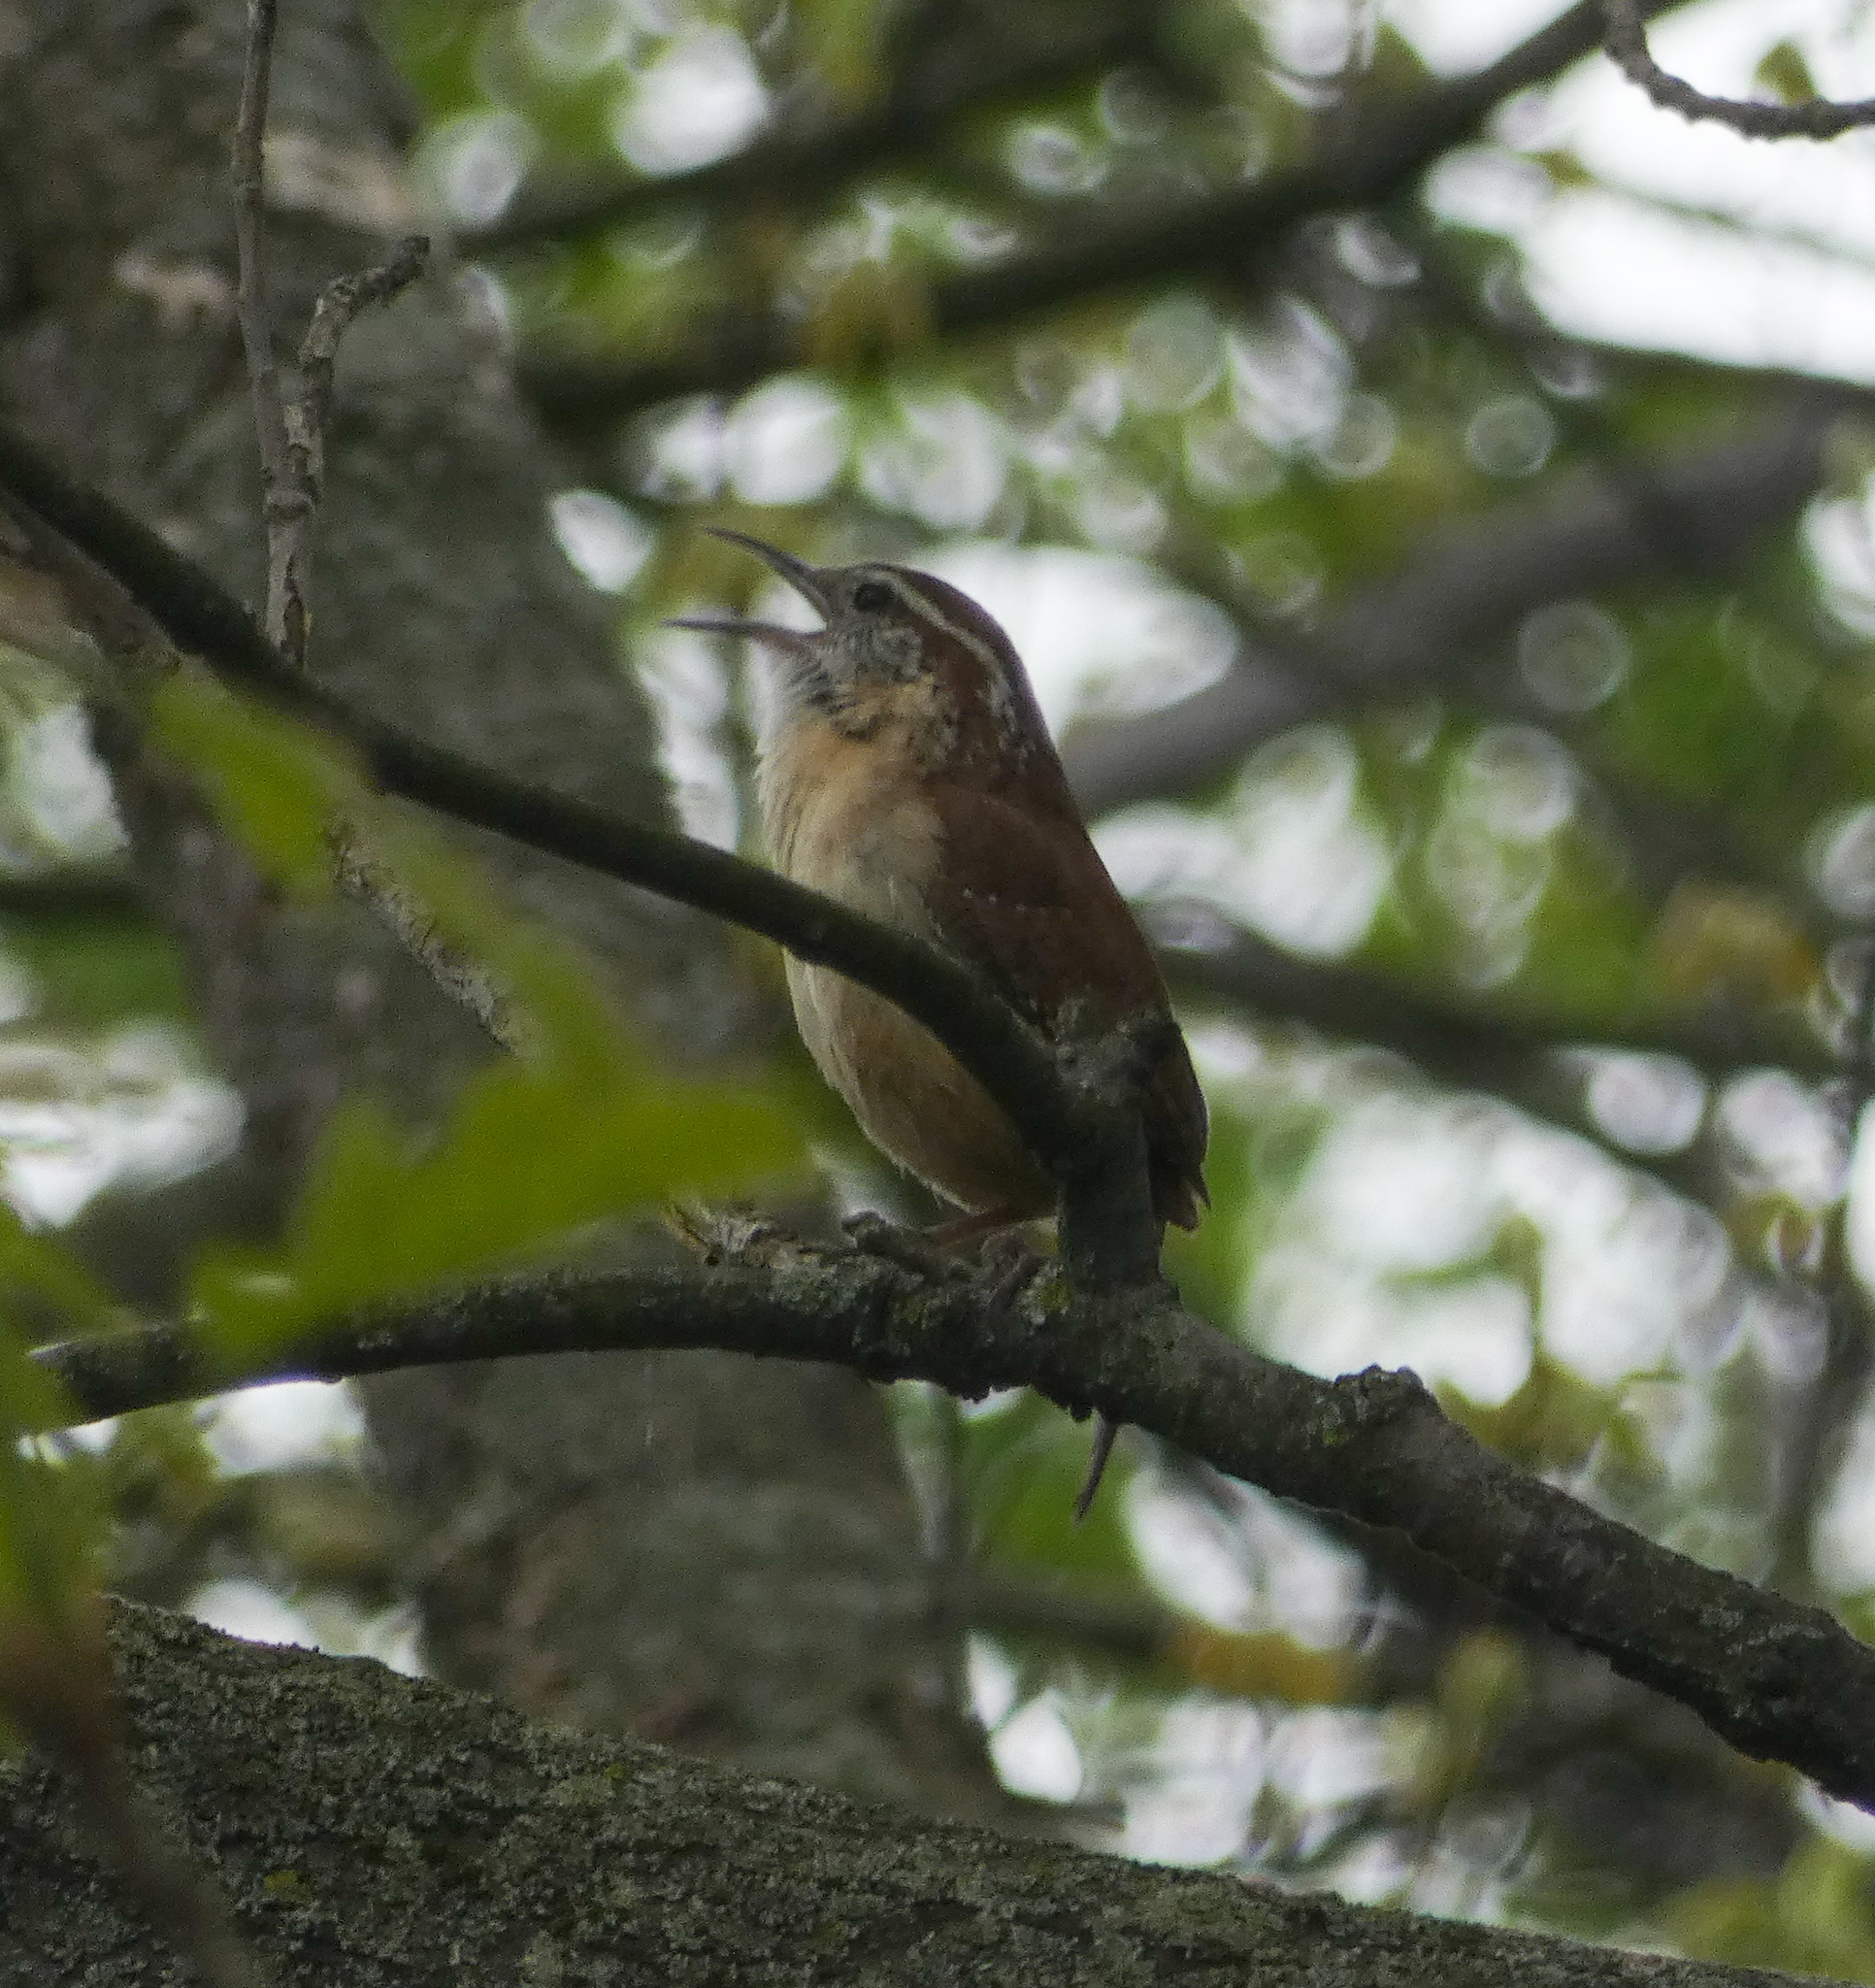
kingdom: Animalia
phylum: Chordata
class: Aves
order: Passeriformes
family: Troglodytidae
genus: Thryothorus
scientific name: Thryothorus ludovicianus
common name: Carolina wren
